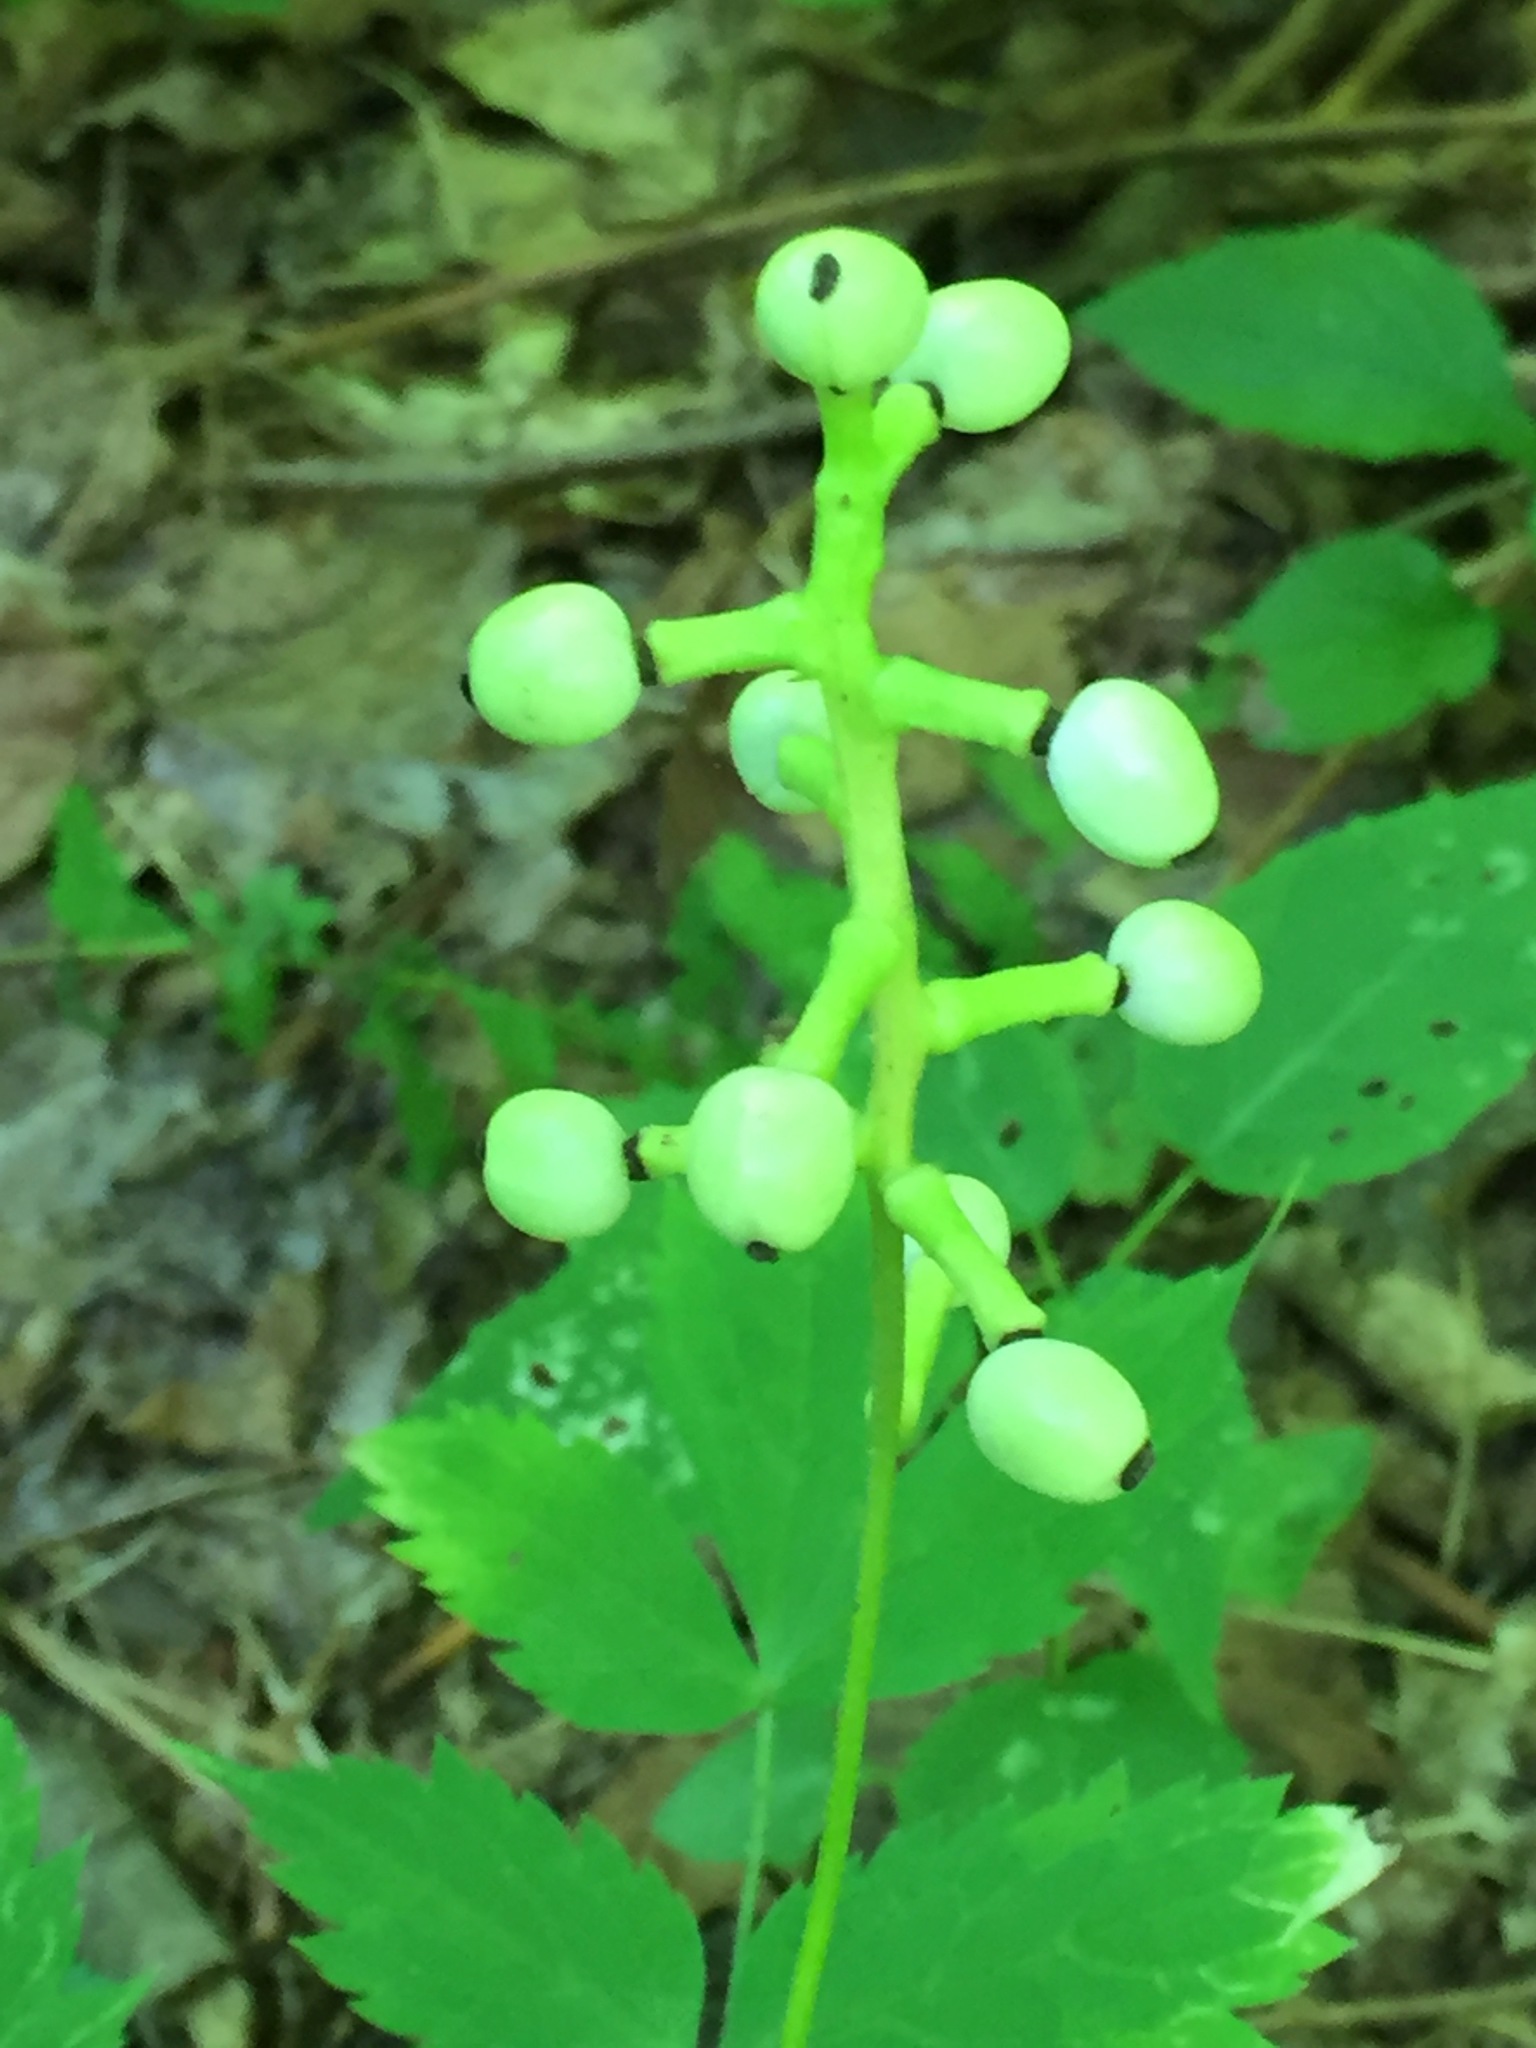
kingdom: Plantae
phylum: Tracheophyta
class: Magnoliopsida
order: Ranunculales
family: Ranunculaceae
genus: Actaea
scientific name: Actaea pachypoda
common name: Doll's-eyes
